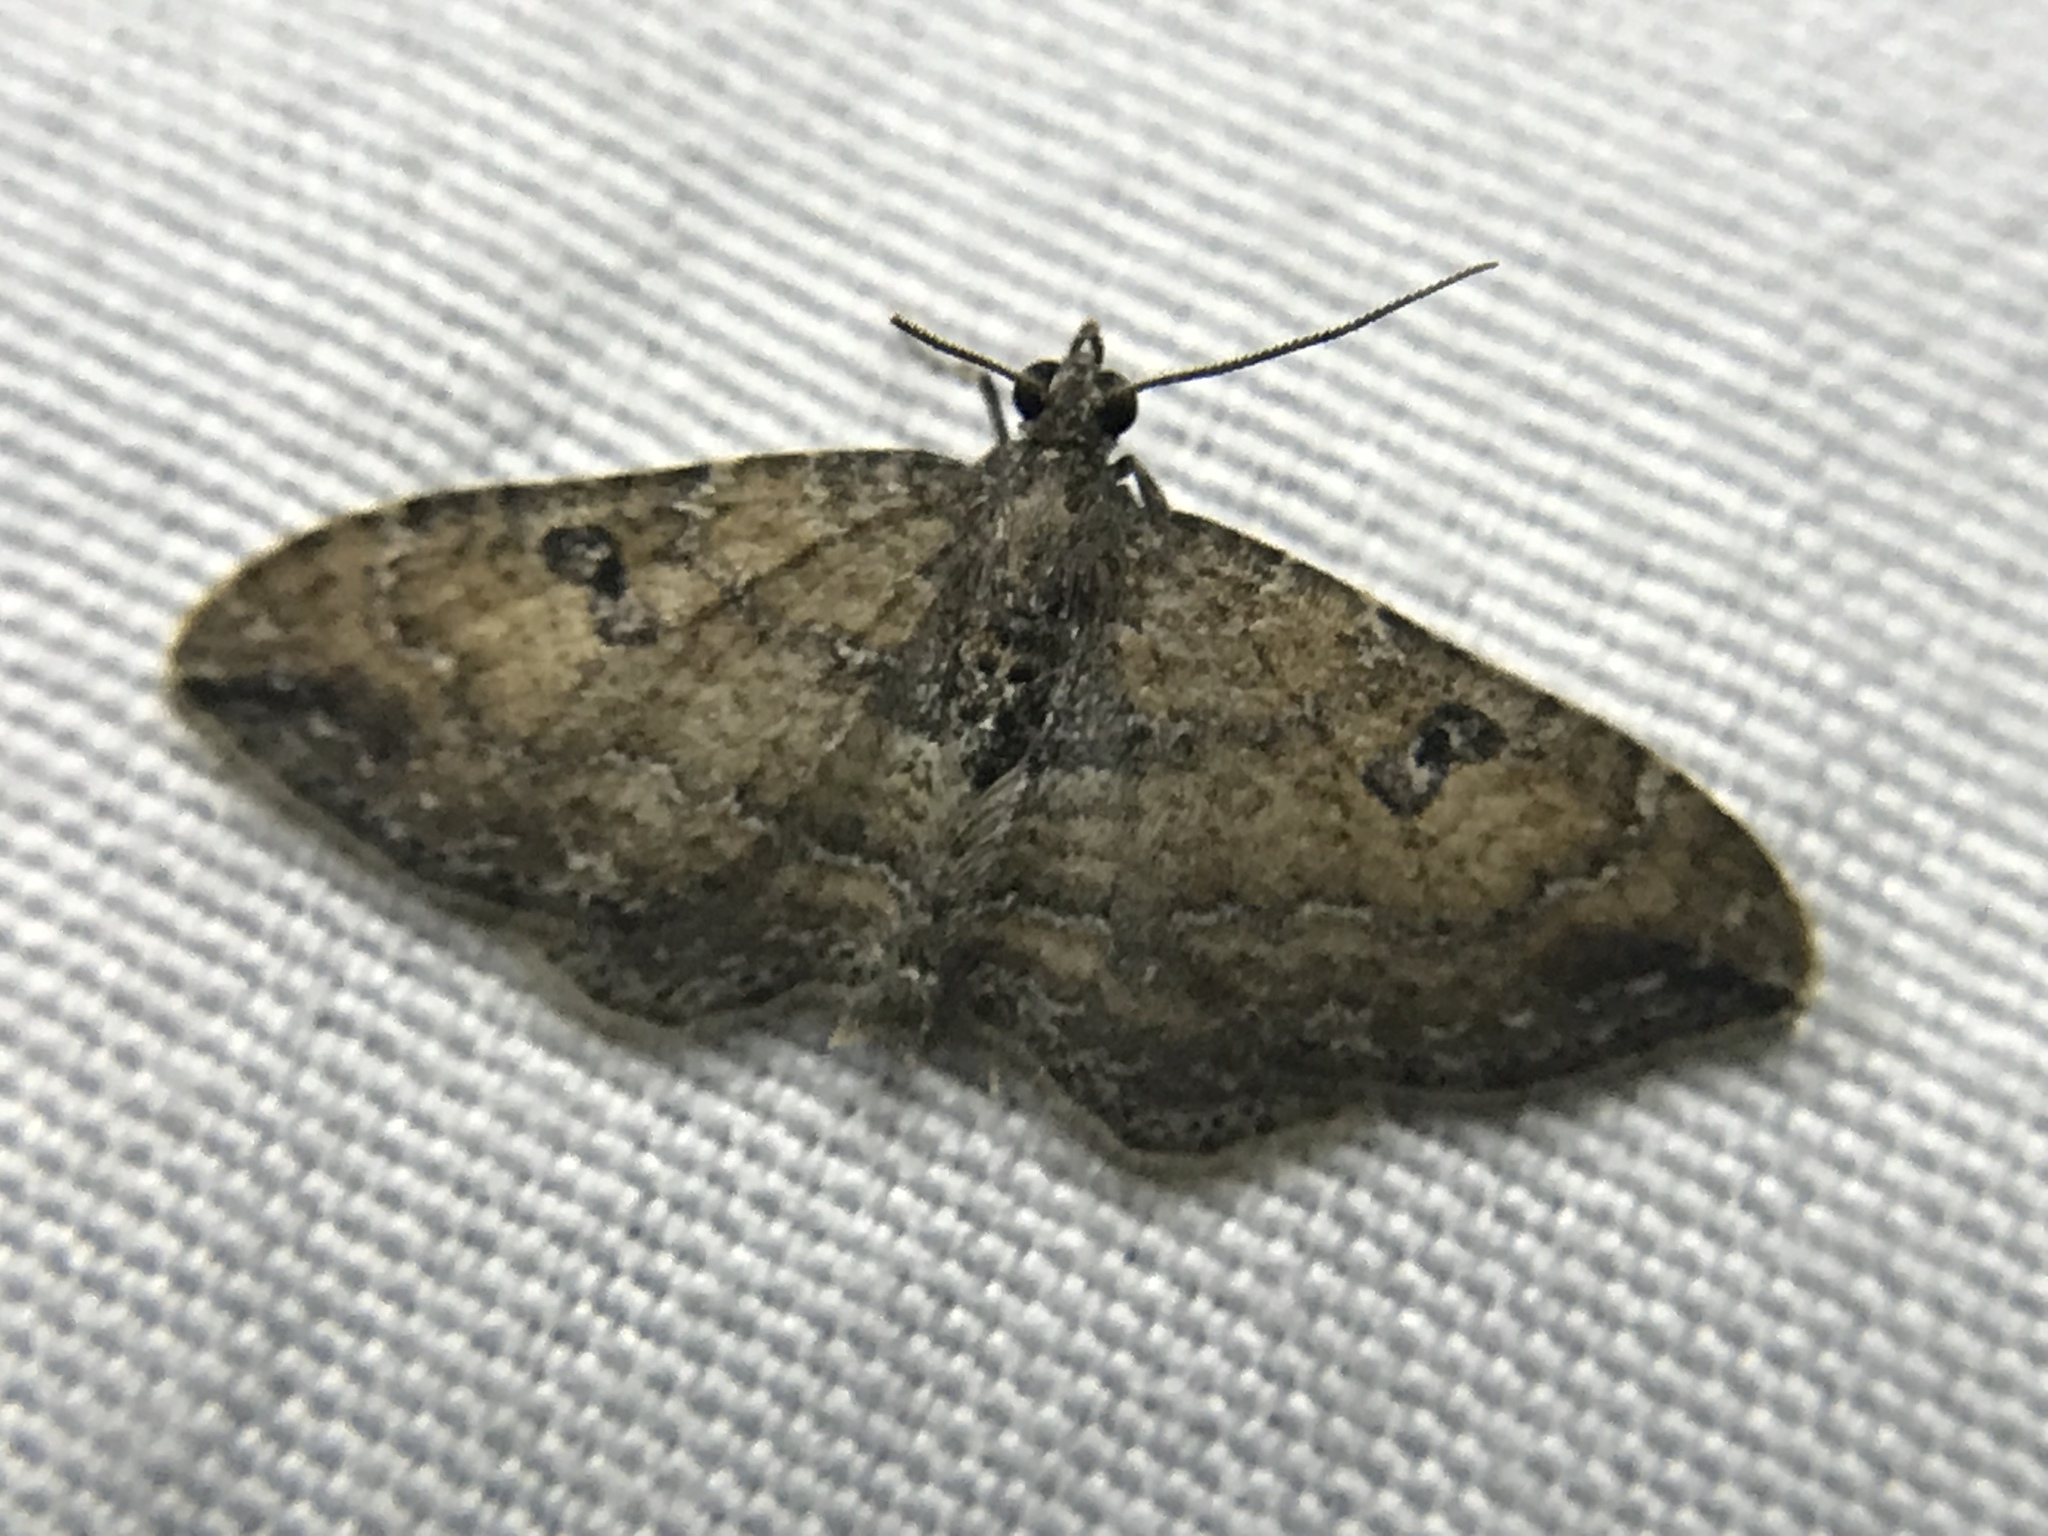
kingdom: Animalia
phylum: Arthropoda
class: Insecta
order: Lepidoptera
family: Geometridae
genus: Orthonama
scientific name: Orthonama obstipata
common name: The gem
